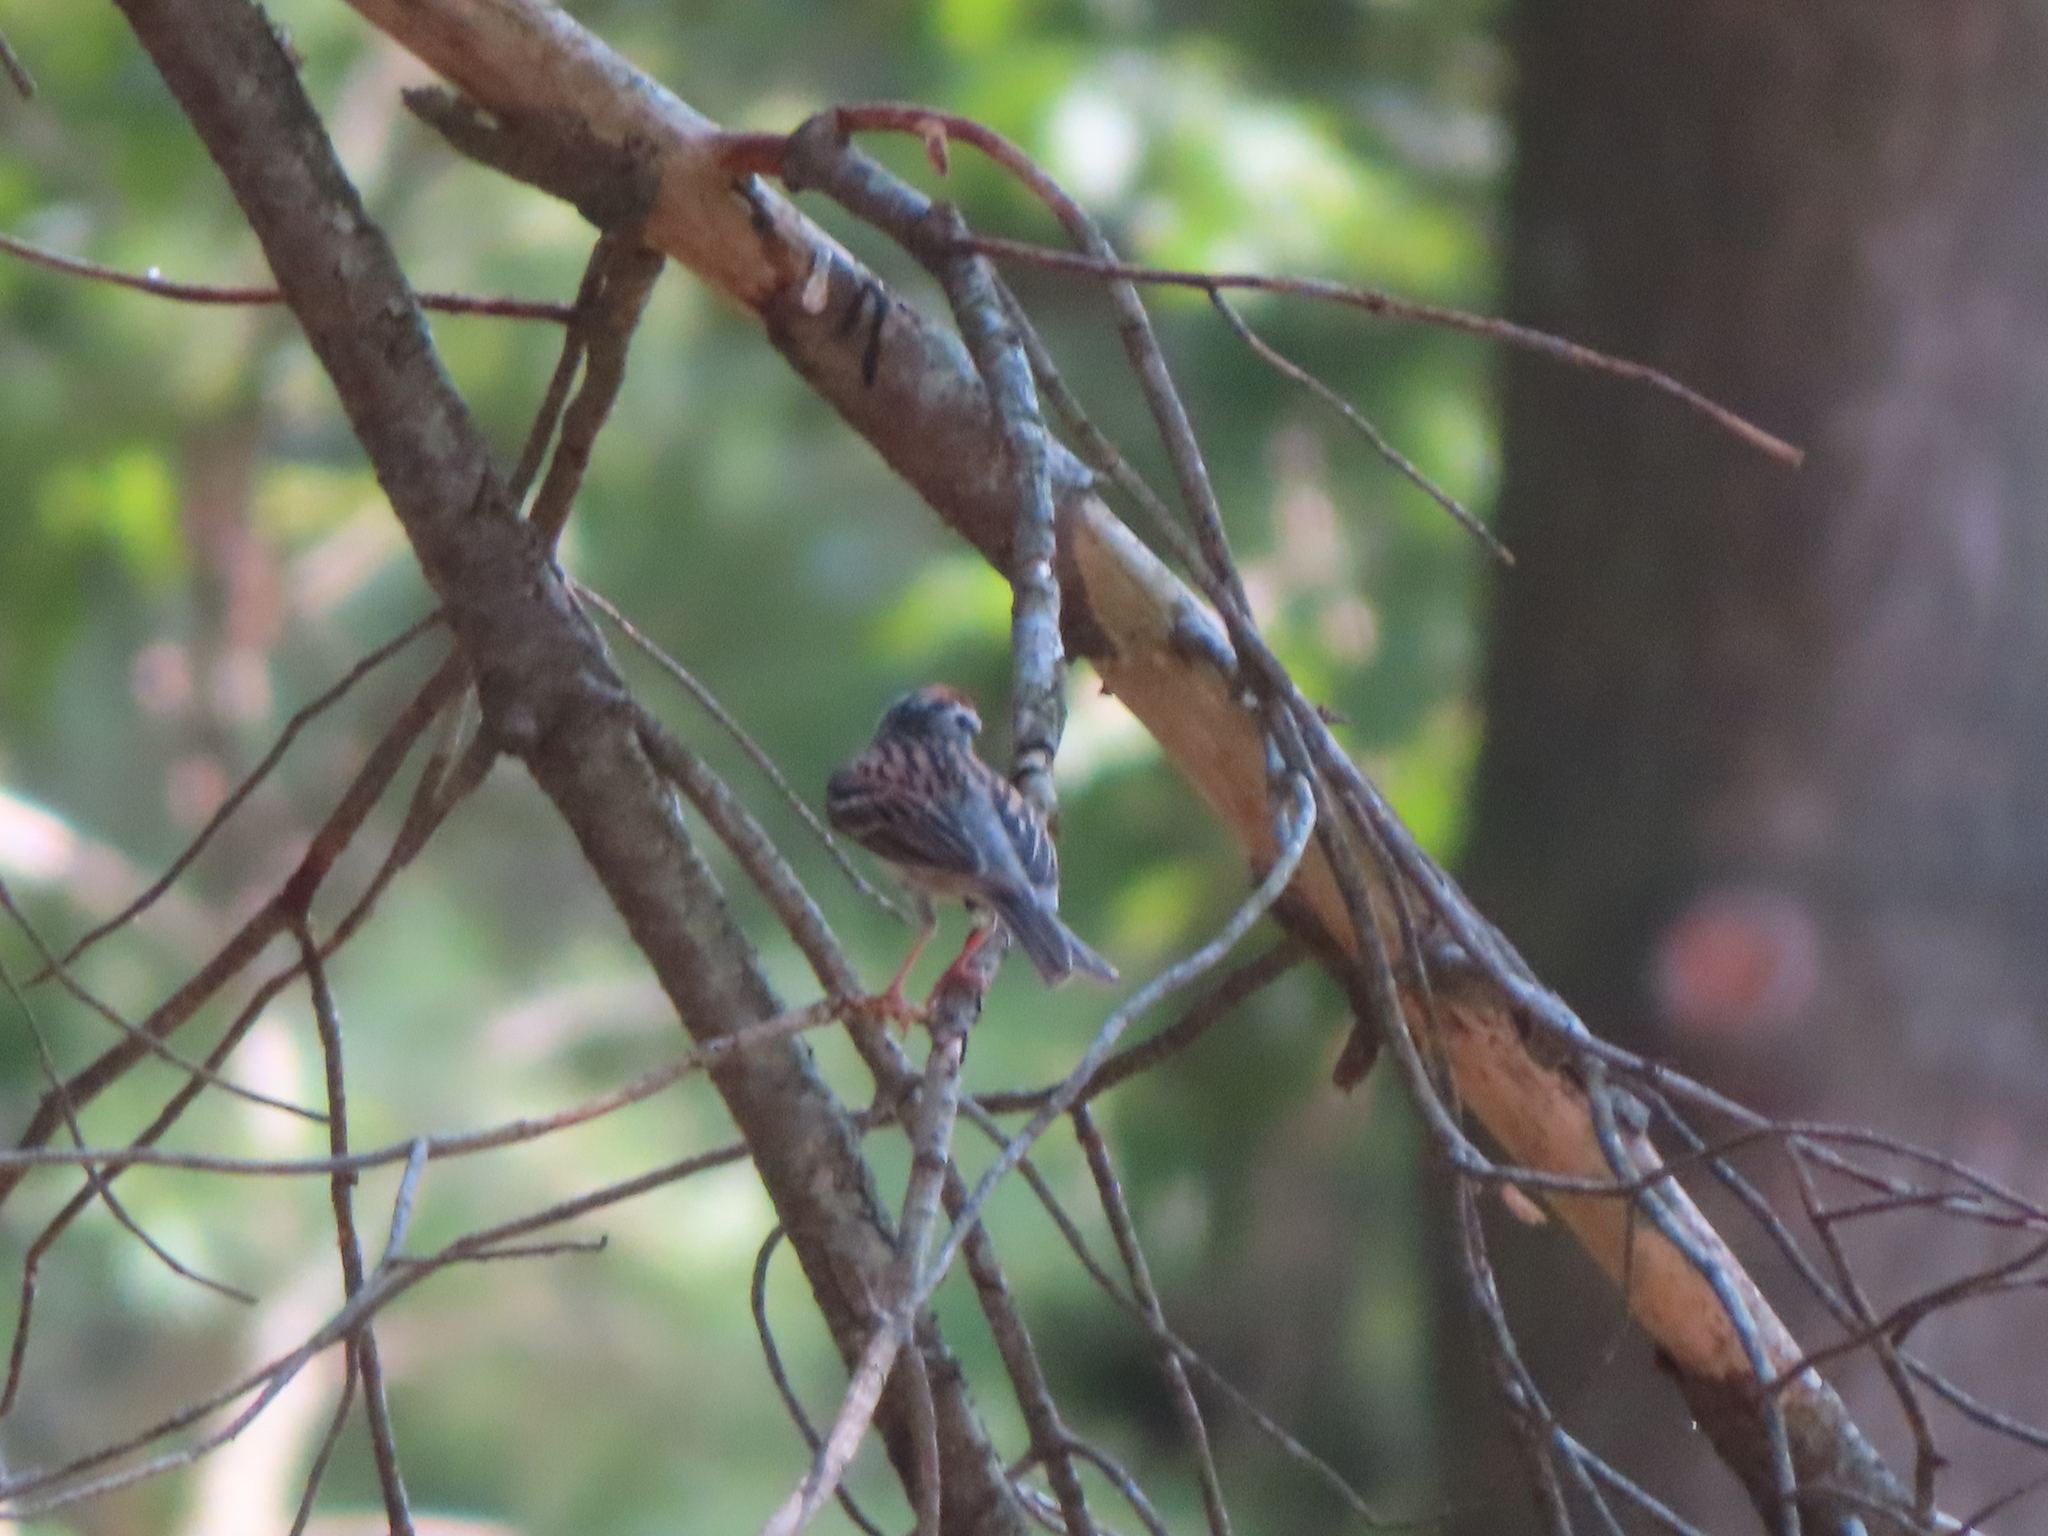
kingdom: Animalia
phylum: Chordata
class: Aves
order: Passeriformes
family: Passerellidae
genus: Spizella
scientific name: Spizella passerina
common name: Chipping sparrow
